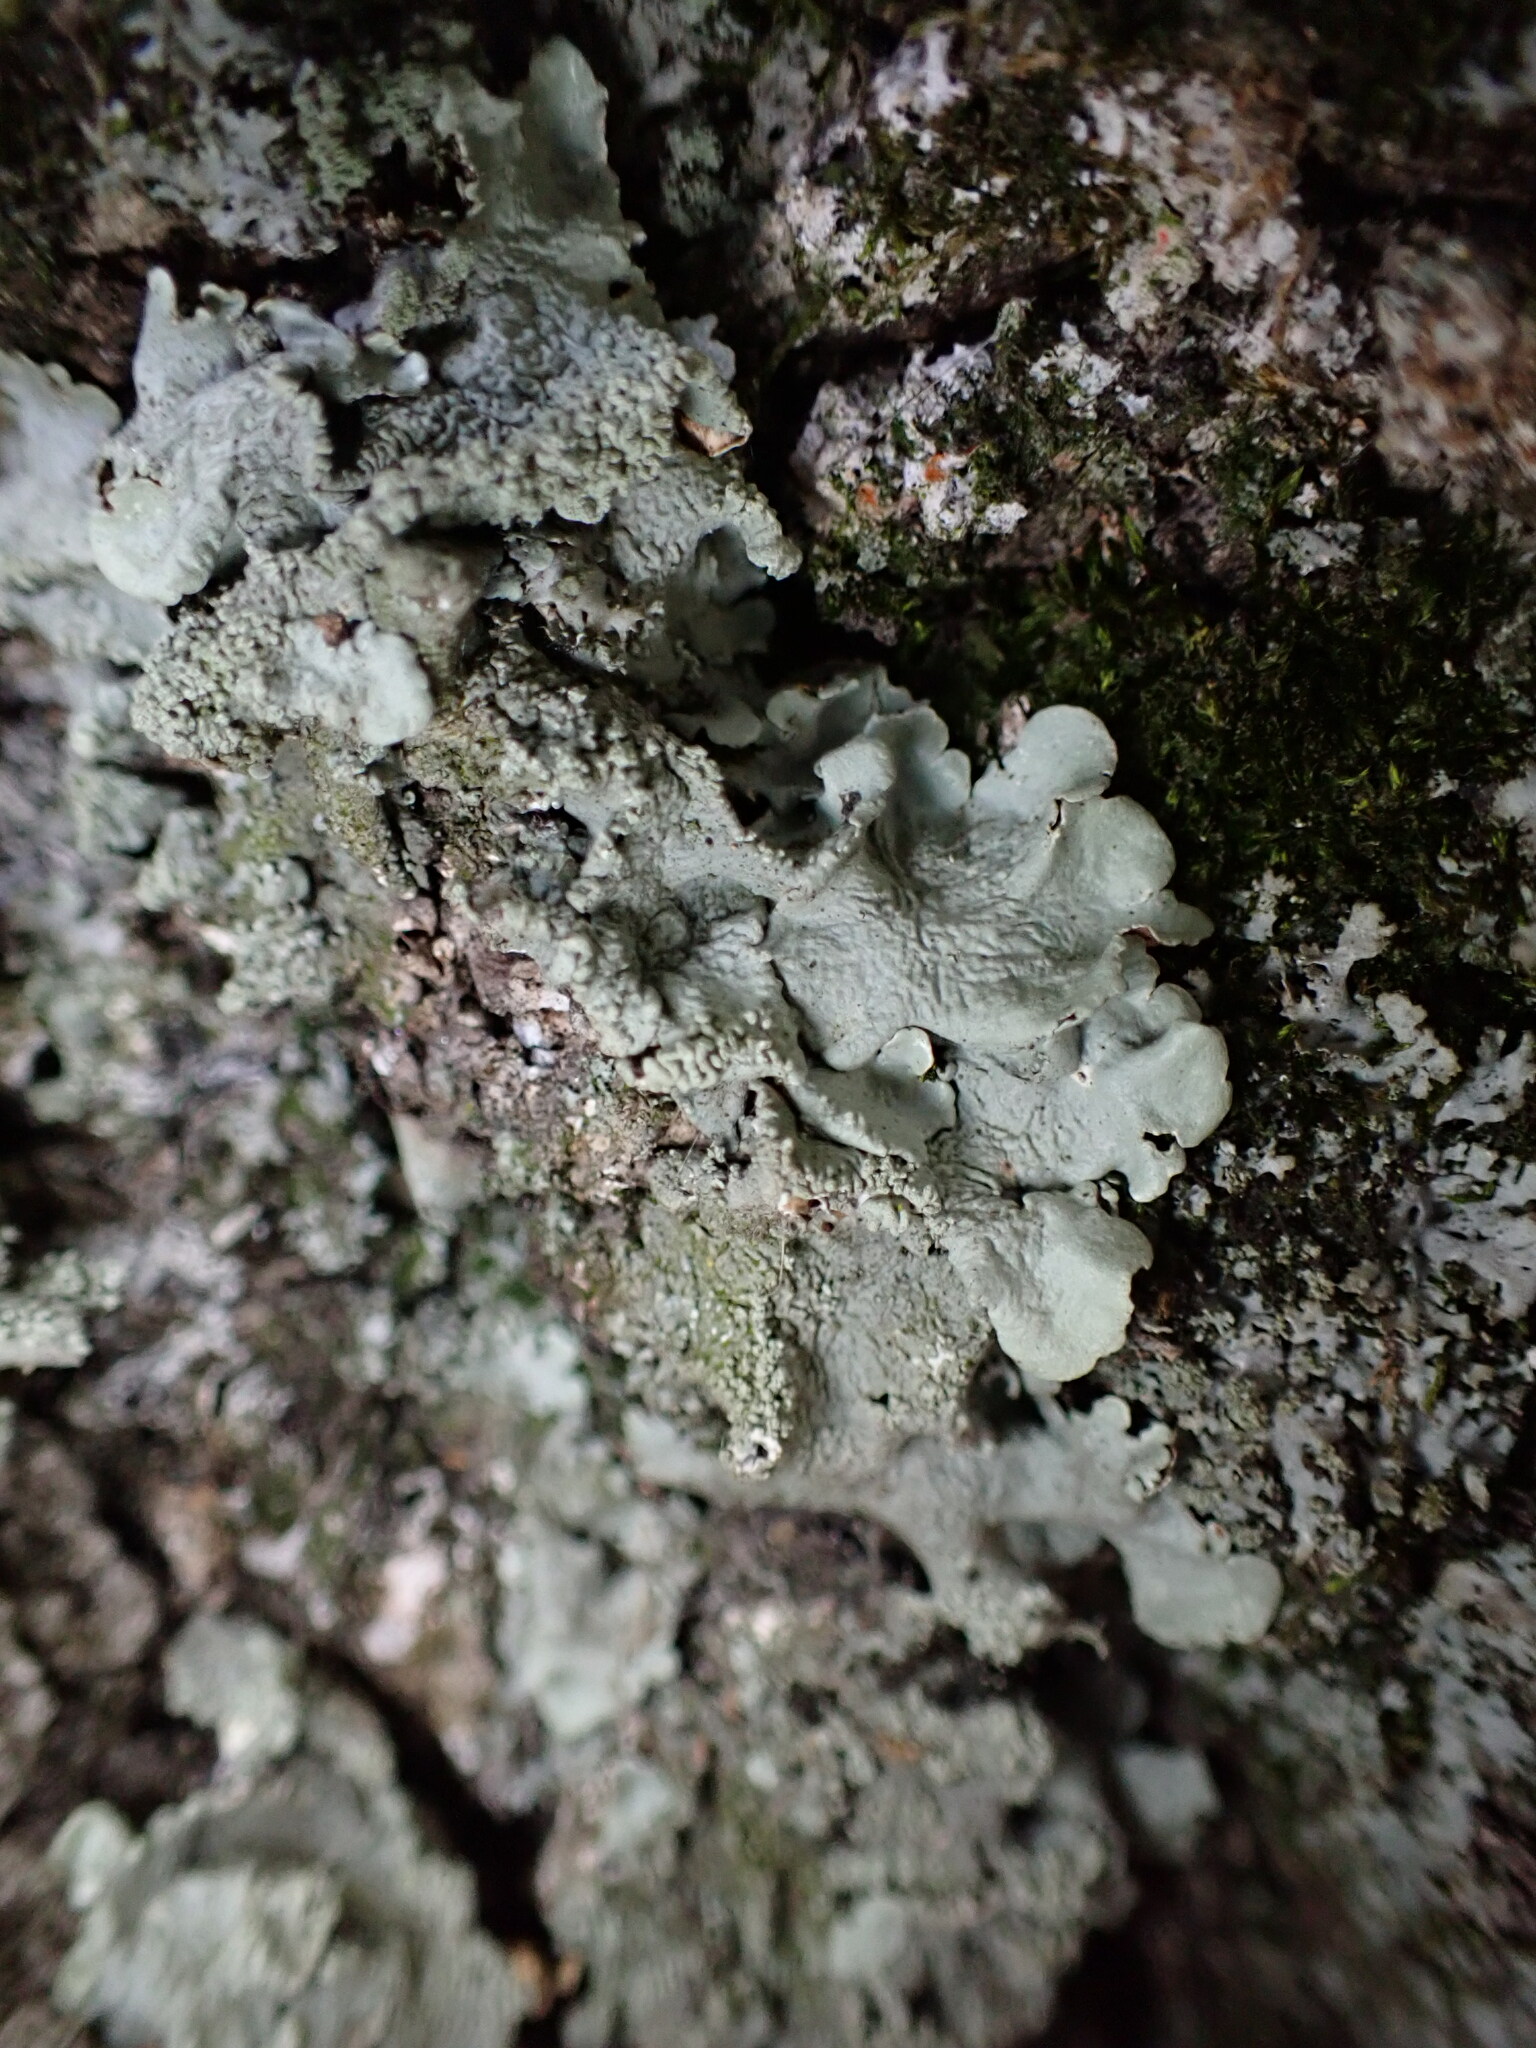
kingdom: Fungi
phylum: Ascomycota
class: Lecanoromycetes
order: Lecanorales
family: Parmeliaceae
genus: Flavoparmelia
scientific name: Flavoparmelia caperata
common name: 40-mile per hour lichen
